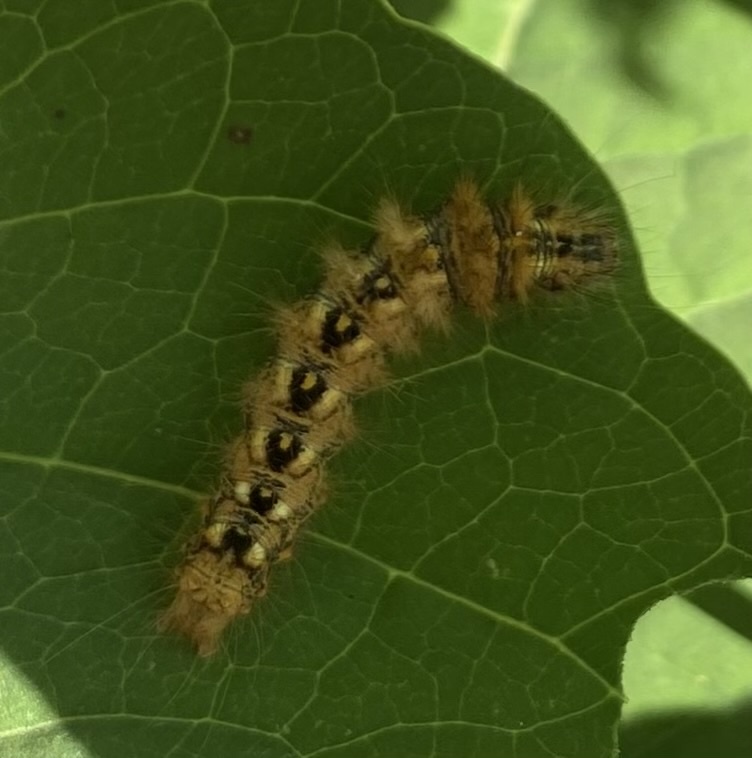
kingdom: Animalia
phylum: Arthropoda
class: Insecta
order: Lepidoptera
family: Noctuidae
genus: Acronicta
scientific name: Acronicta rumicis
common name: Knot grass
